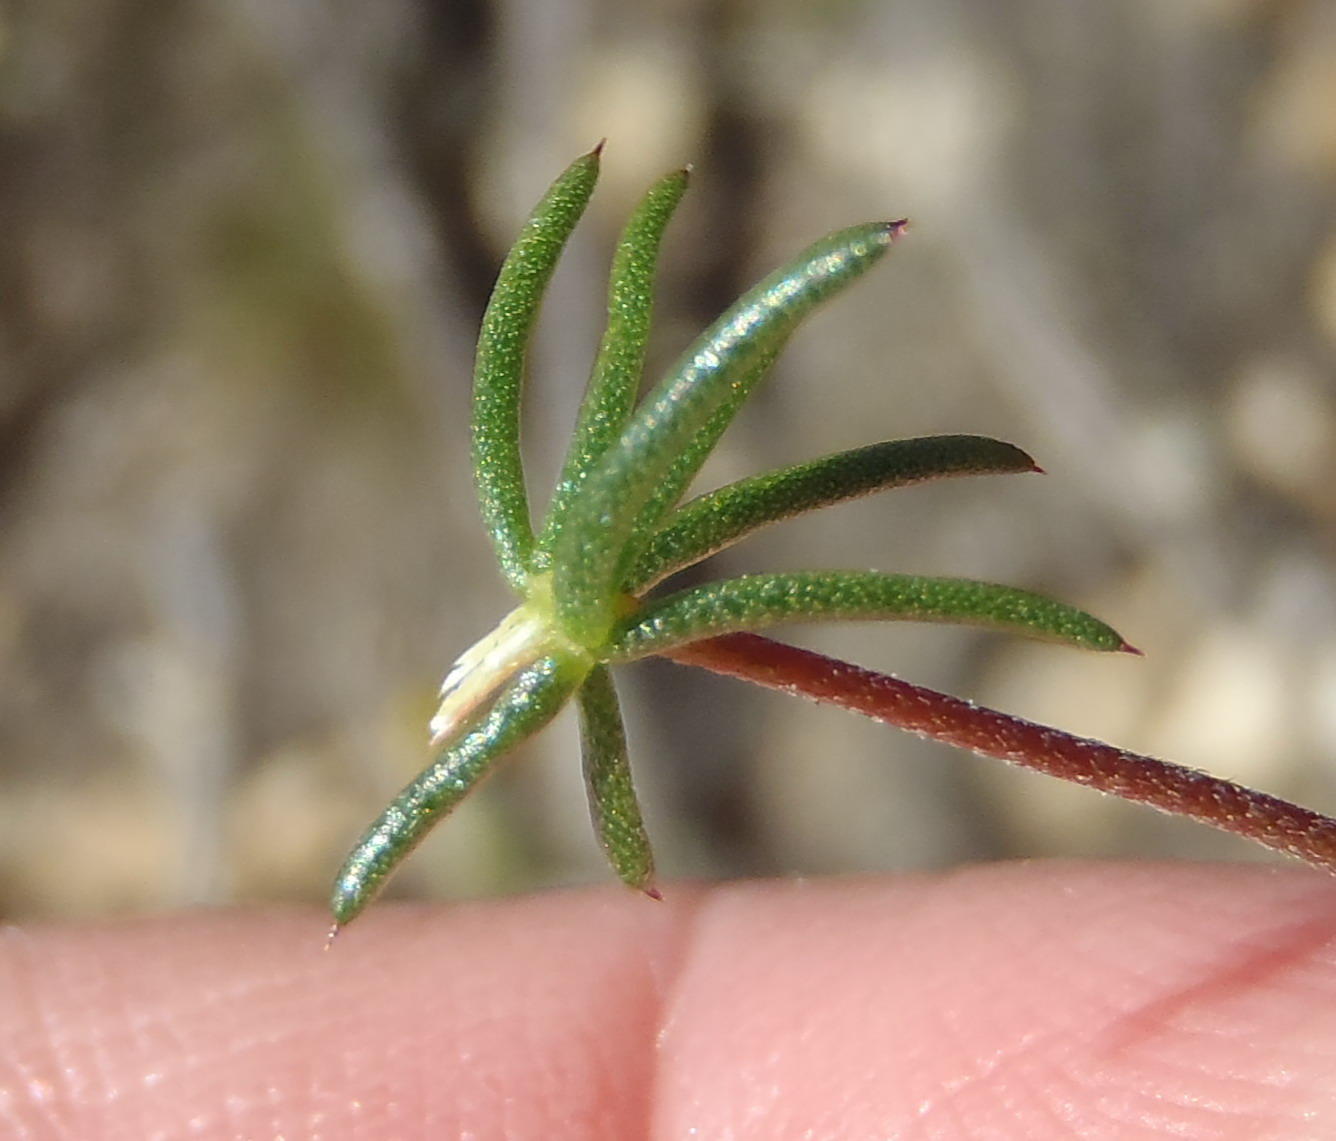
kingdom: Plantae
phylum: Tracheophyta
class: Magnoliopsida
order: Fabales
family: Fabaceae
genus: Aspalathus
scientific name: Aspalathus biflora
